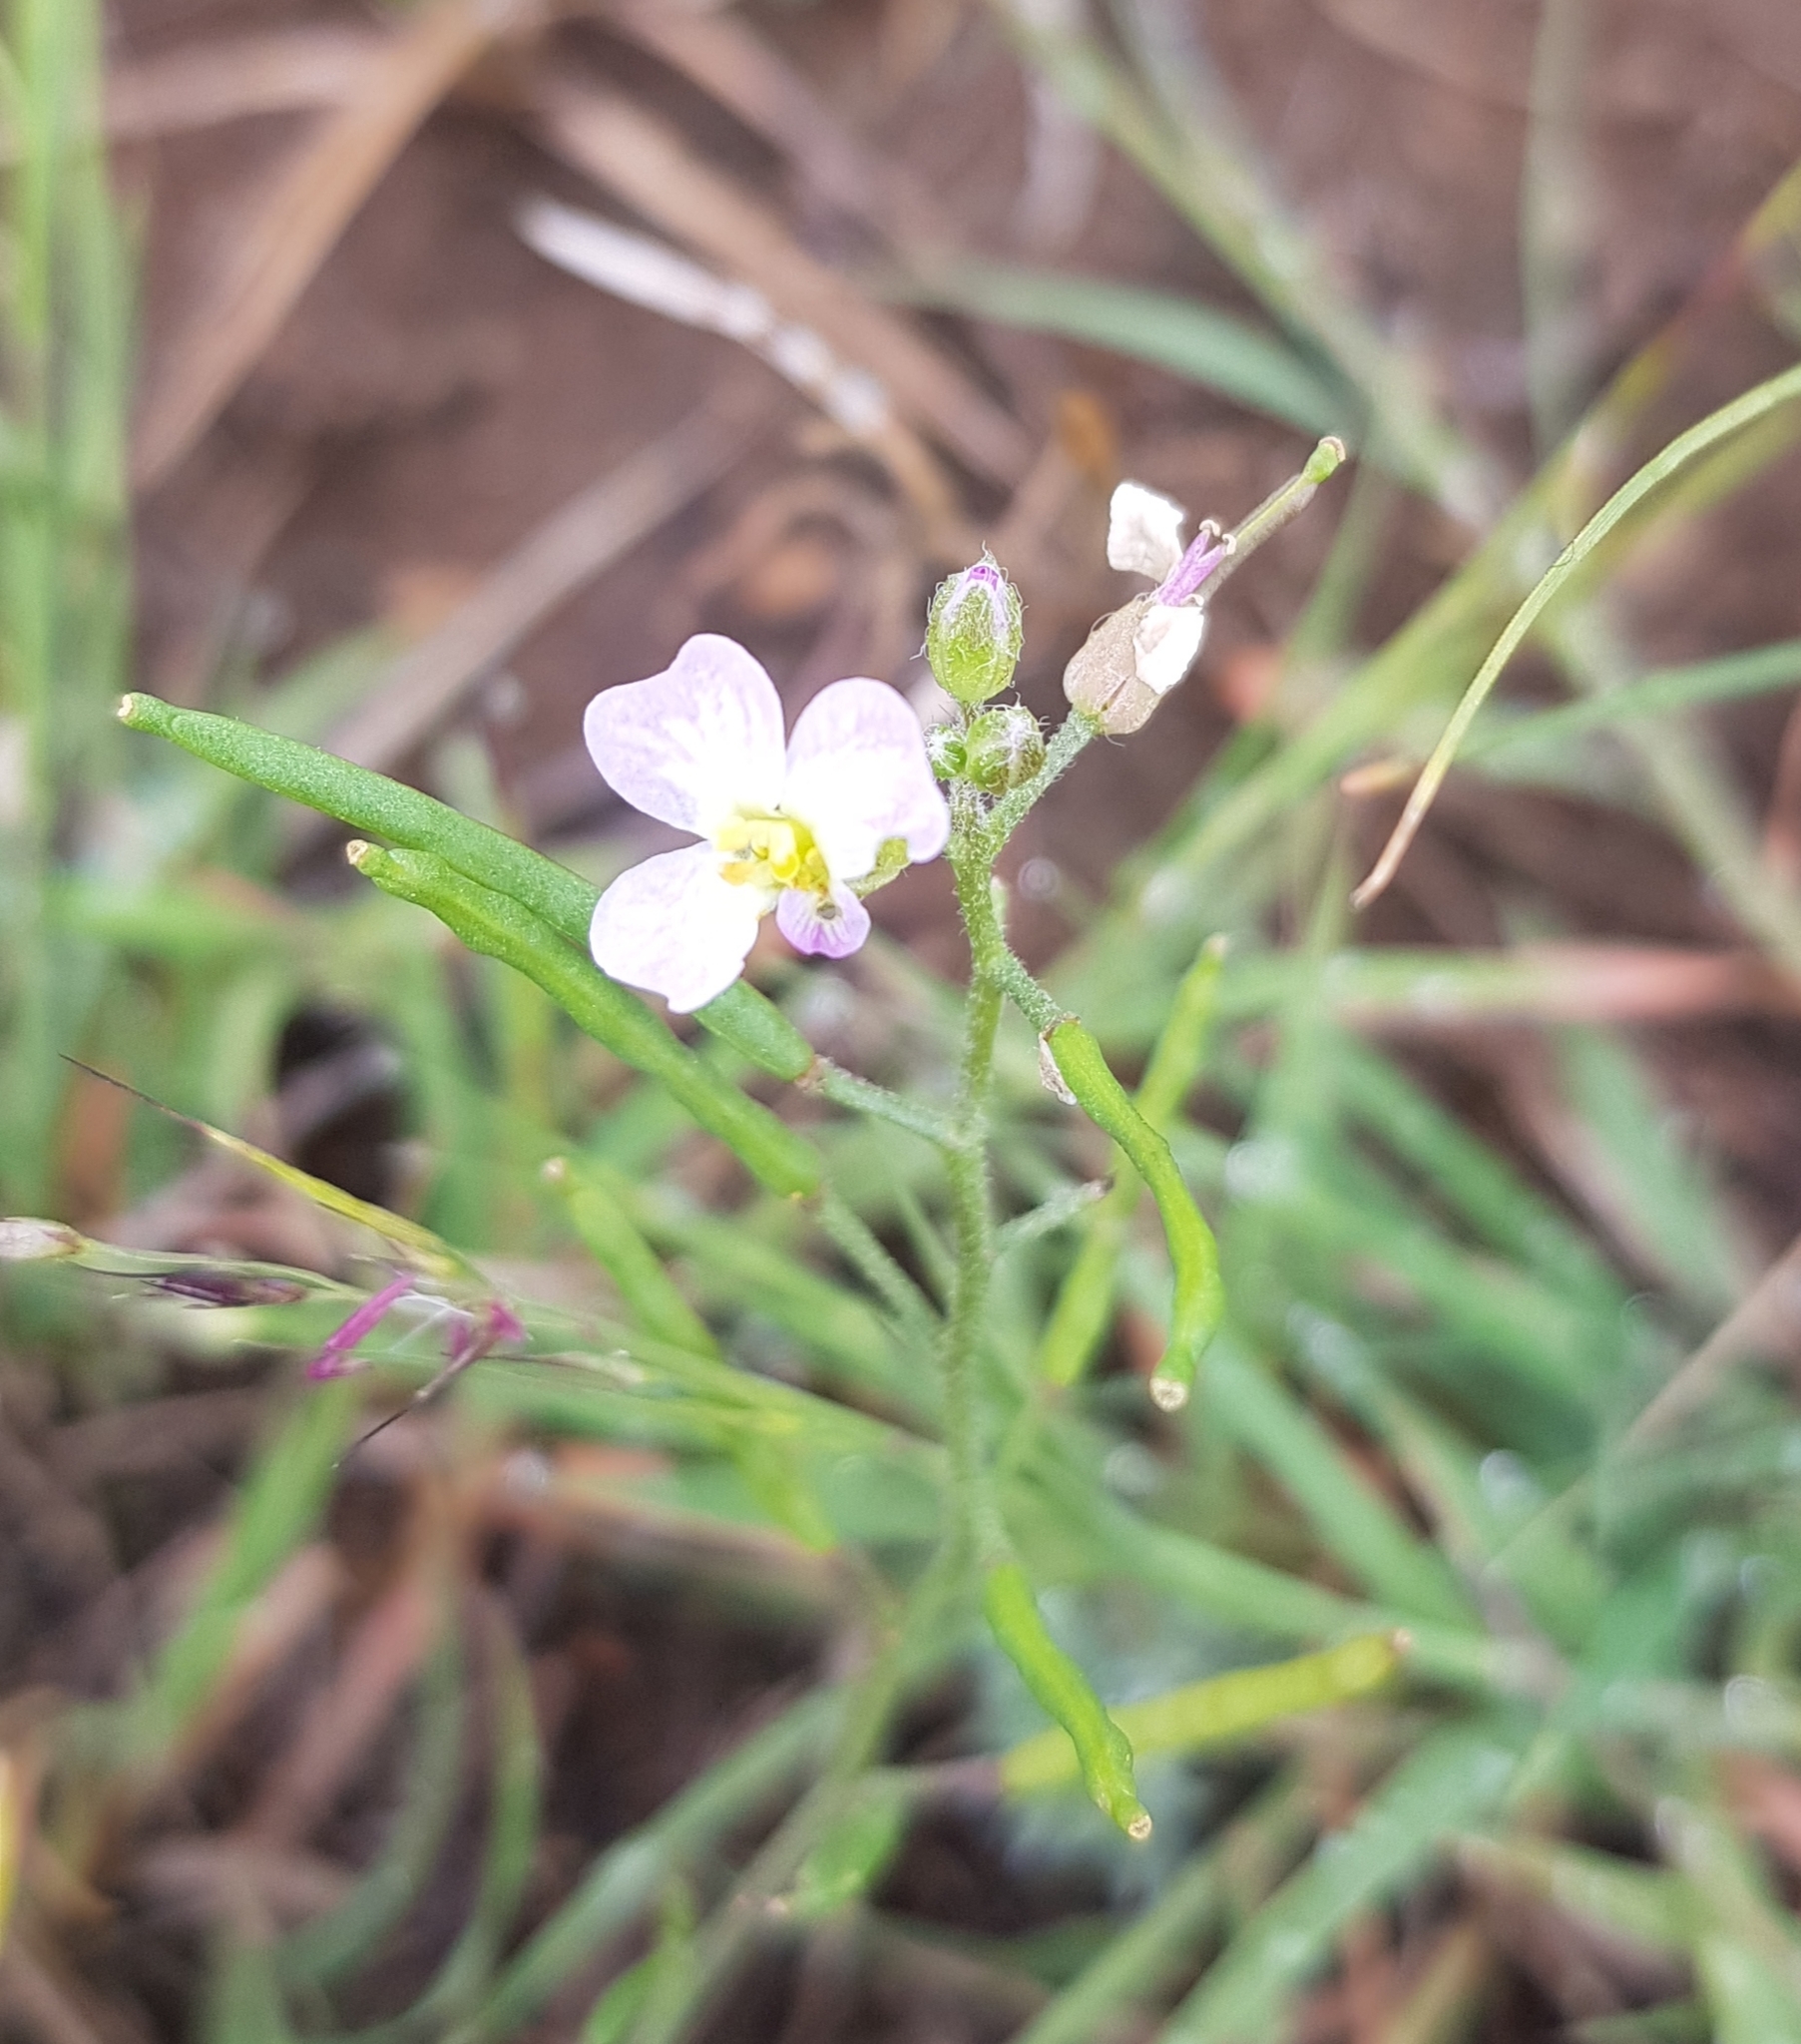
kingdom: Plantae
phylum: Tracheophyta
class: Magnoliopsida
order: Brassicales
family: Brassicaceae
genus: Dontostemon
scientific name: Dontostemon integrifolius
